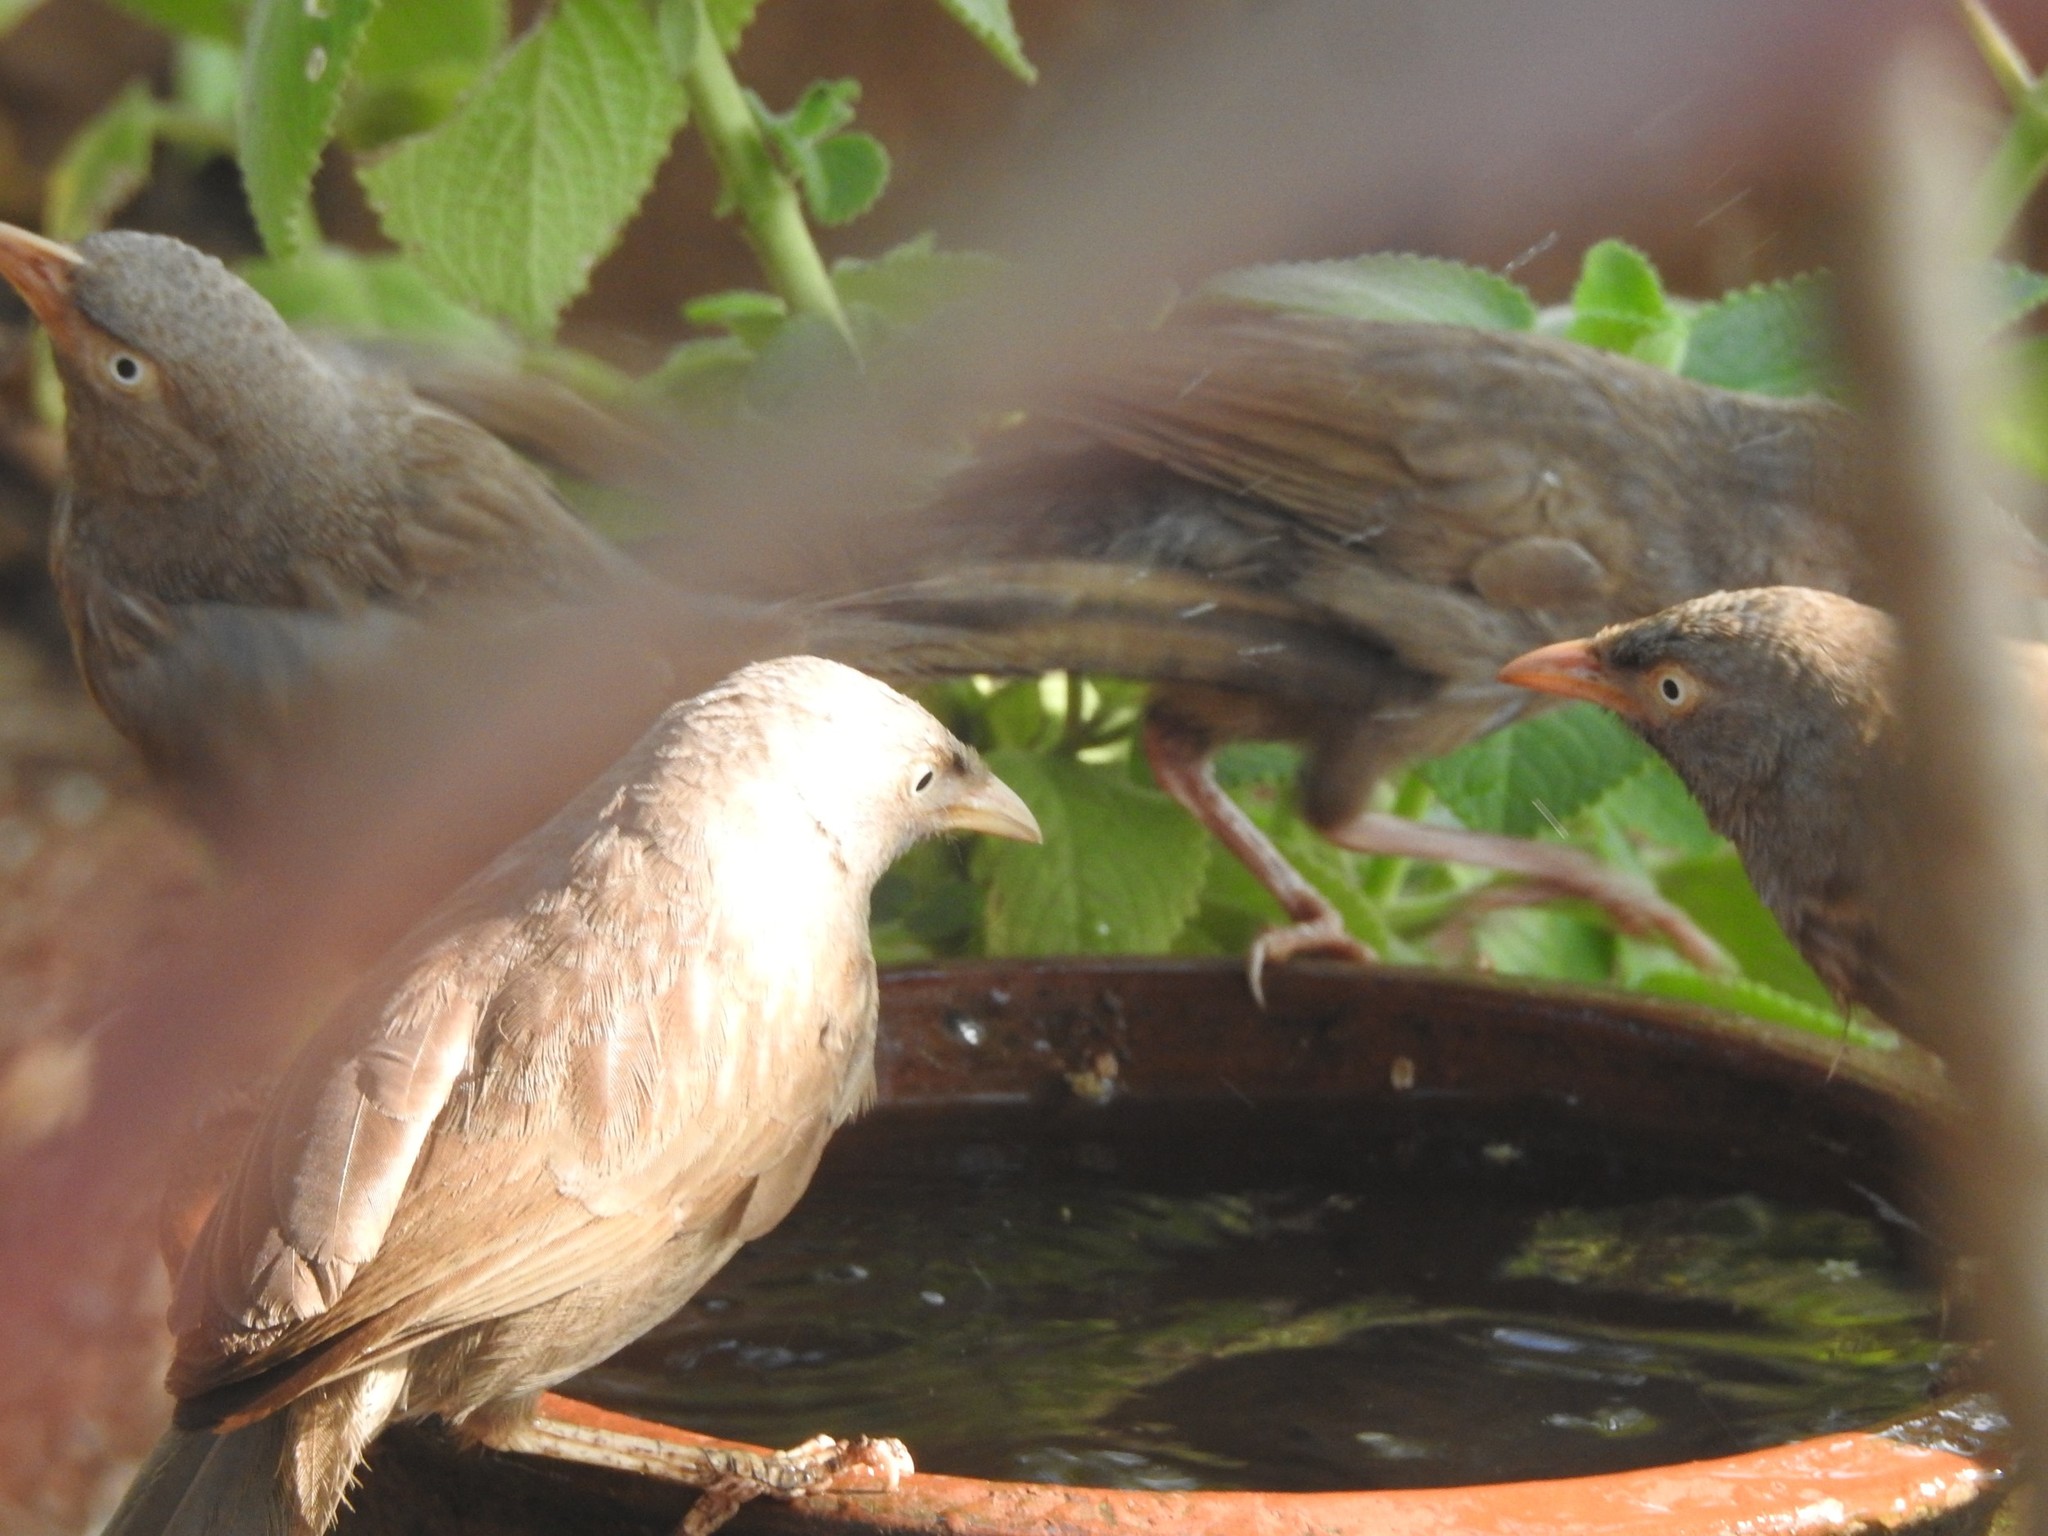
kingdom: Animalia
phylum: Chordata
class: Aves
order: Passeriformes
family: Leiothrichidae
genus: Turdoides
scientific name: Turdoides striata
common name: Jungle babbler
